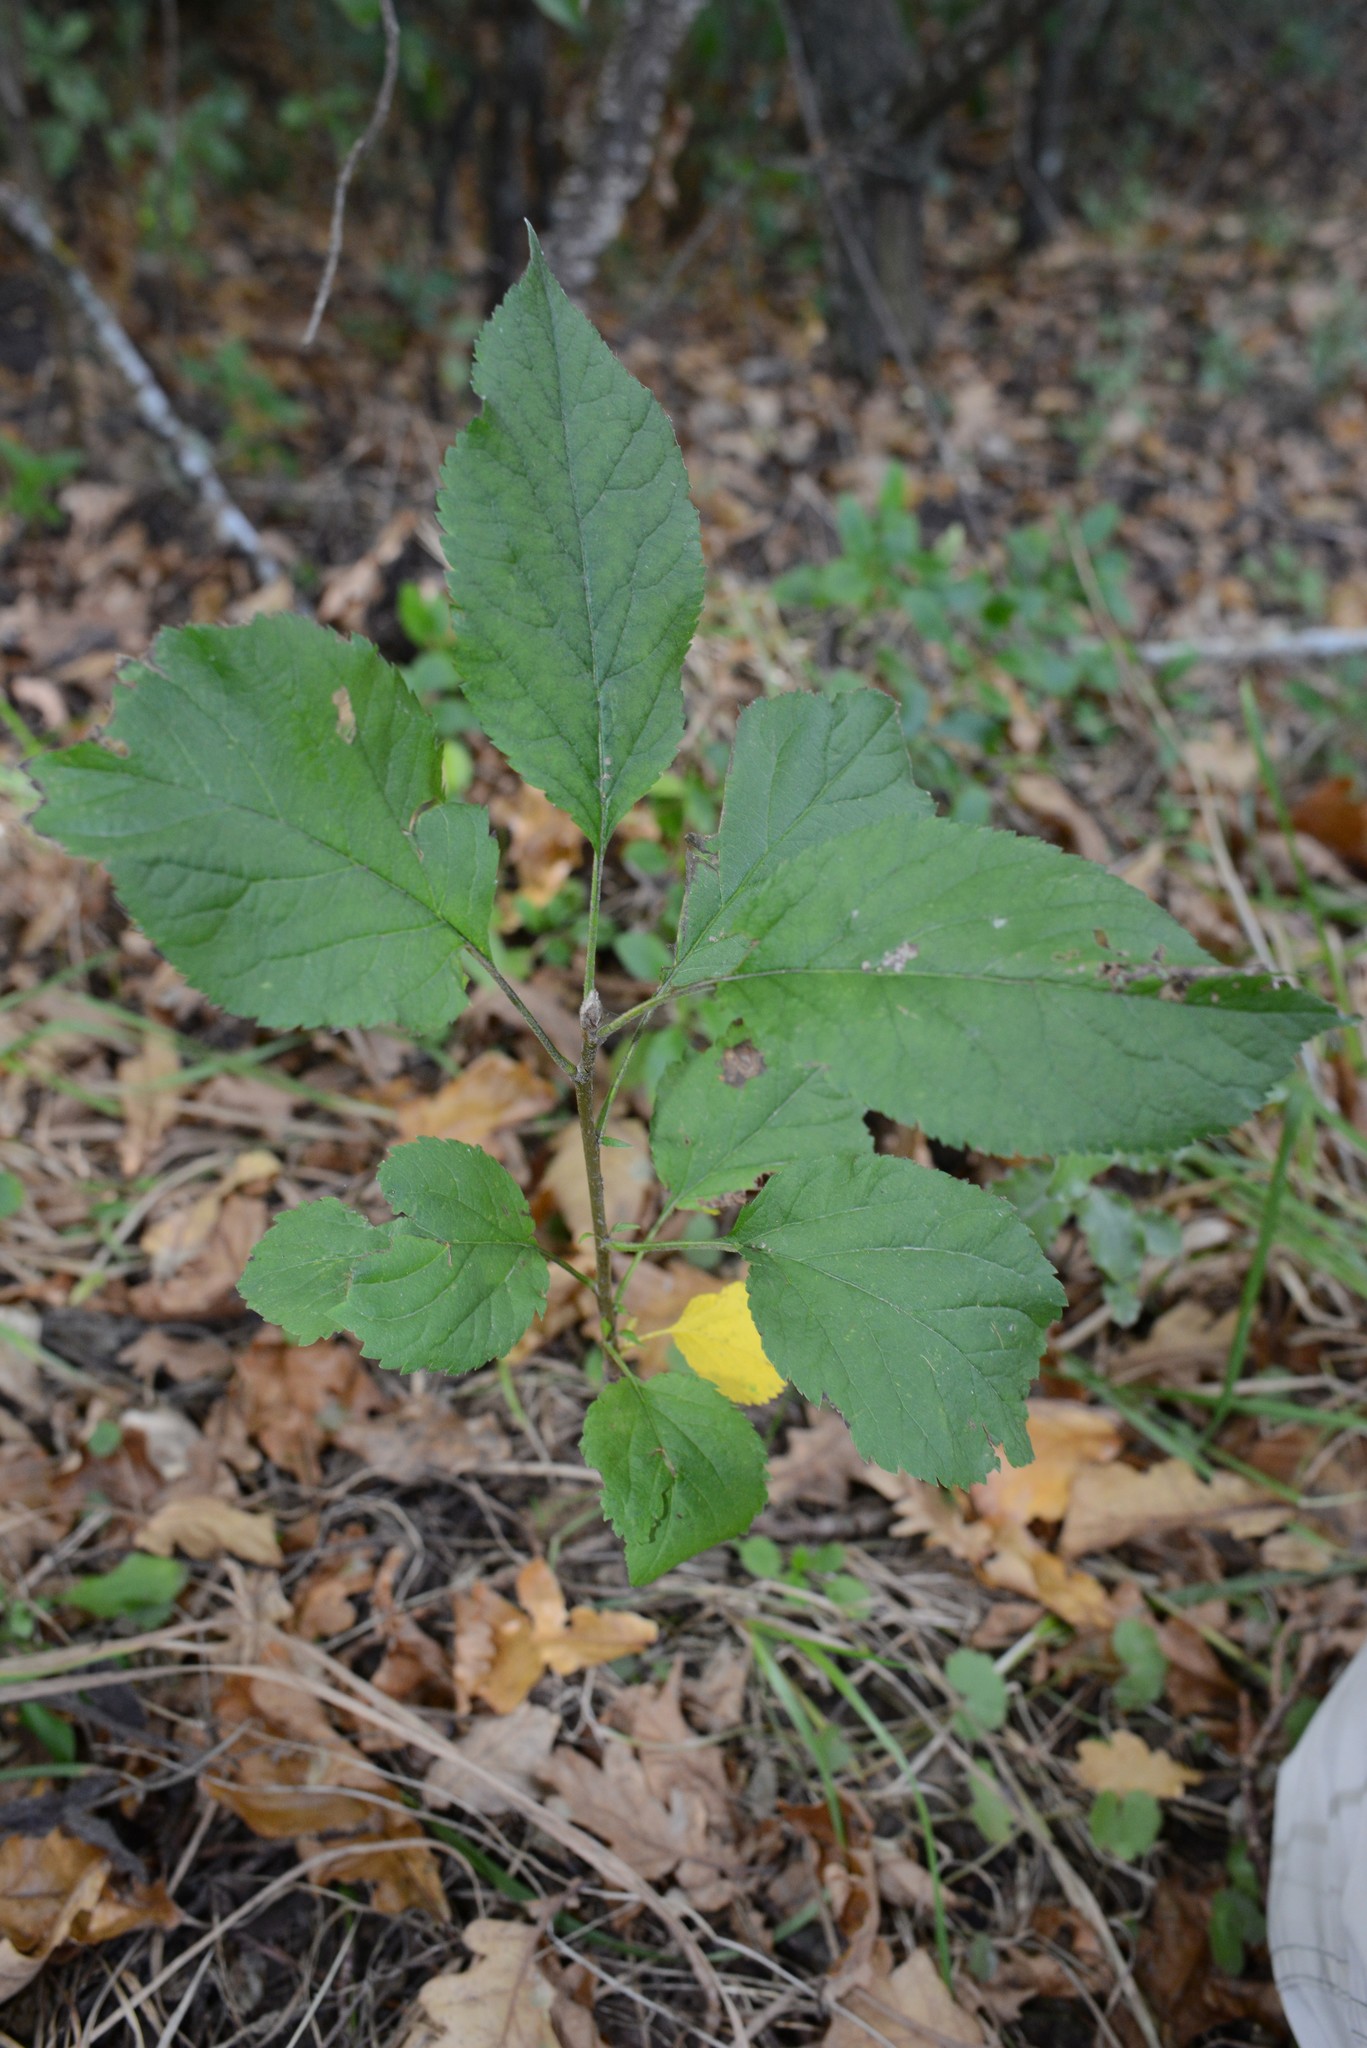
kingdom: Plantae
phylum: Tracheophyta
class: Magnoliopsida
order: Rosales
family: Rosaceae
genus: Malus
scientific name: Malus domestica
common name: Apple
